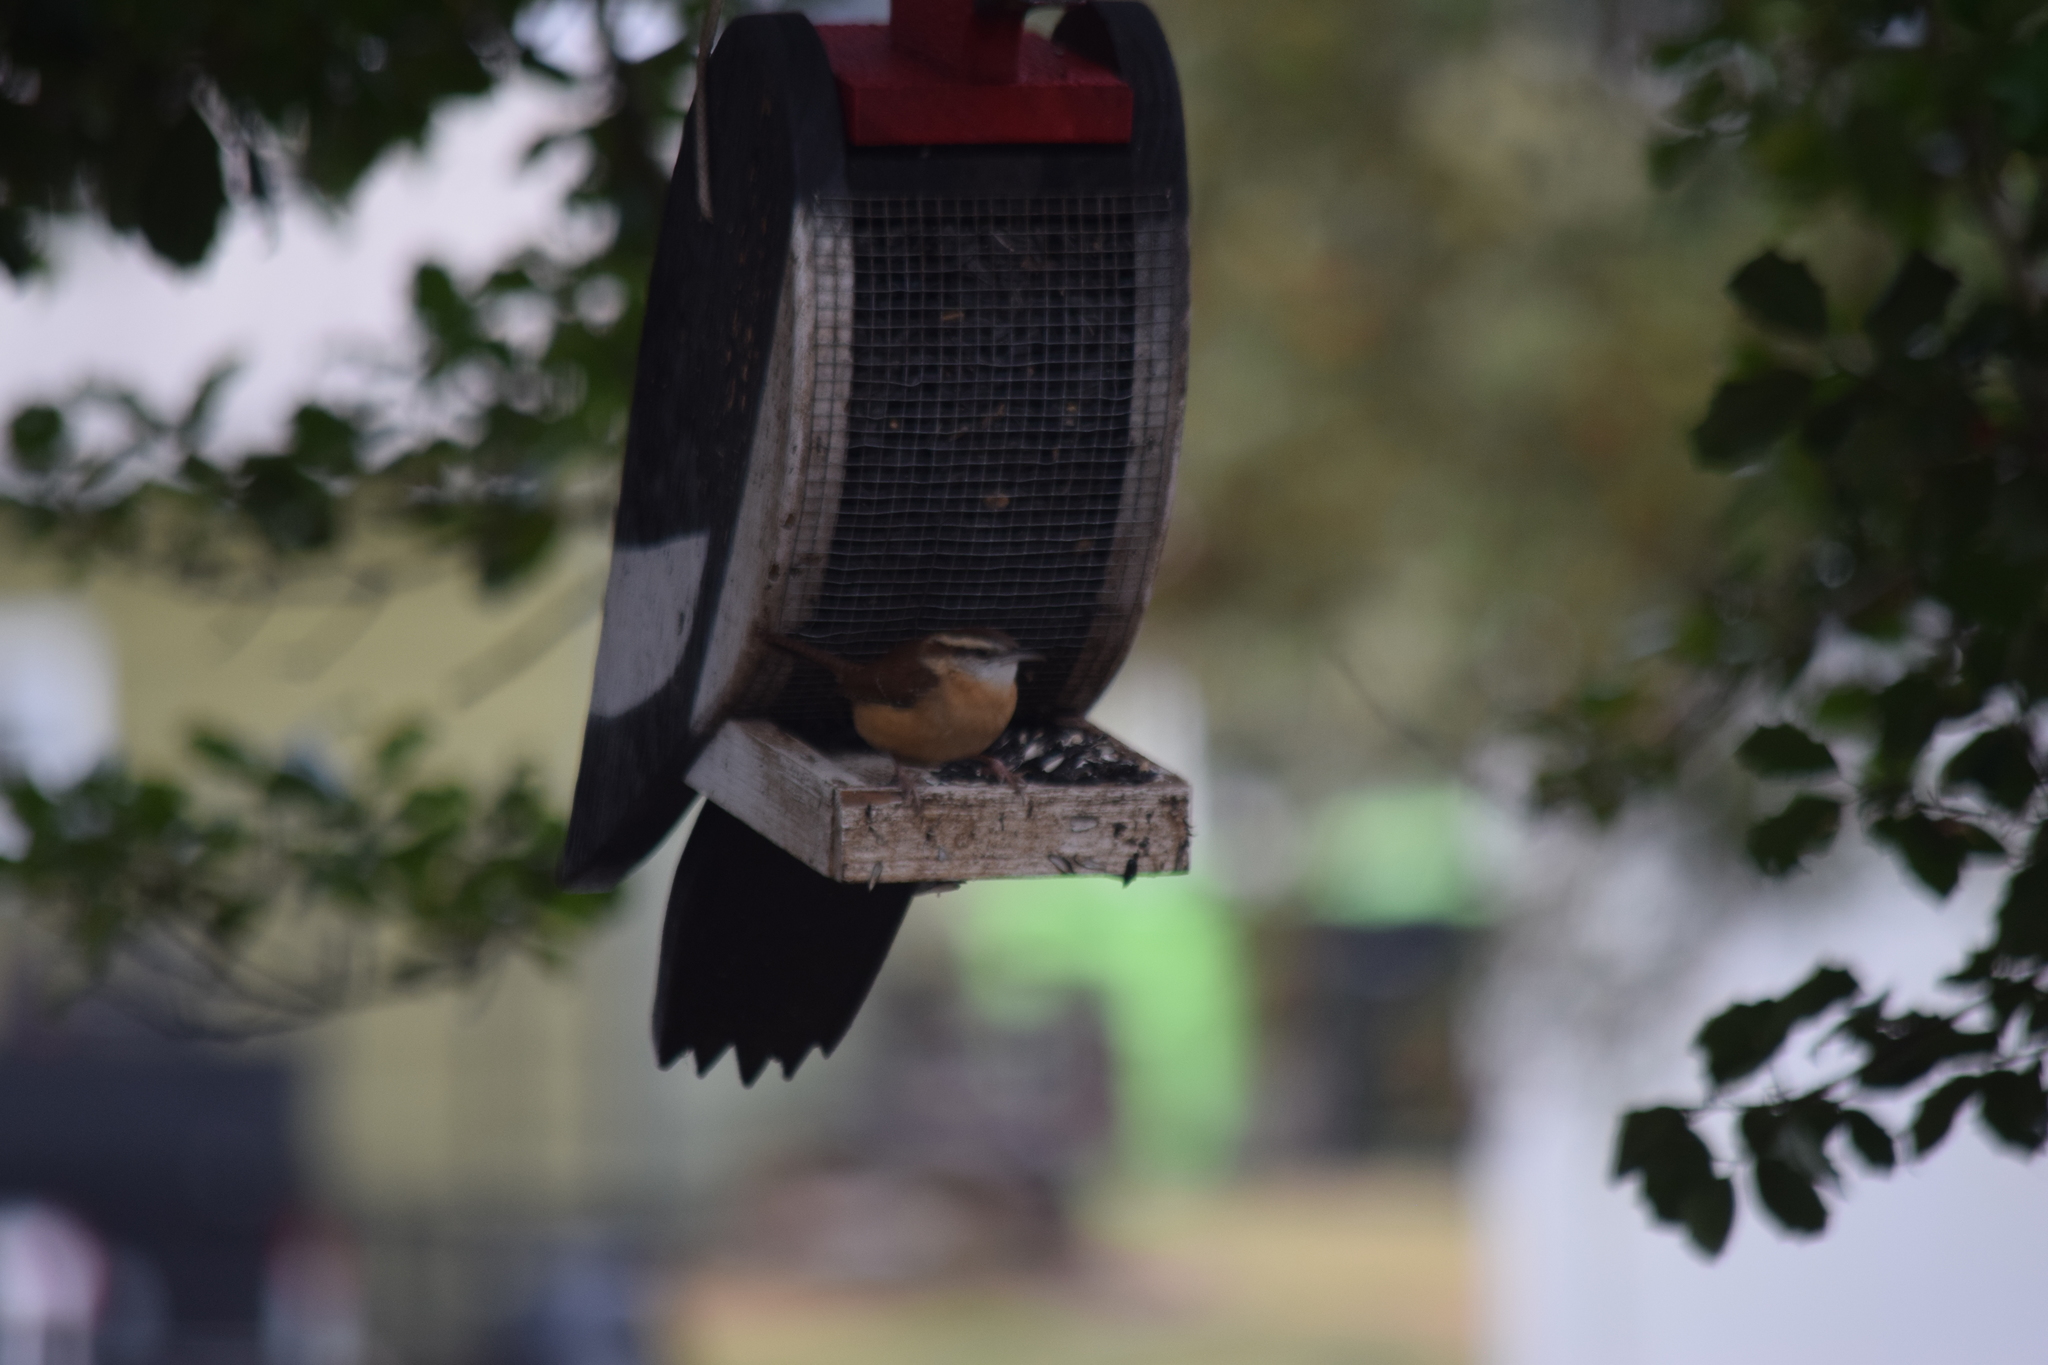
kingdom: Animalia
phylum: Chordata
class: Aves
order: Passeriformes
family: Troglodytidae
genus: Thryothorus
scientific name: Thryothorus ludovicianus
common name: Carolina wren
